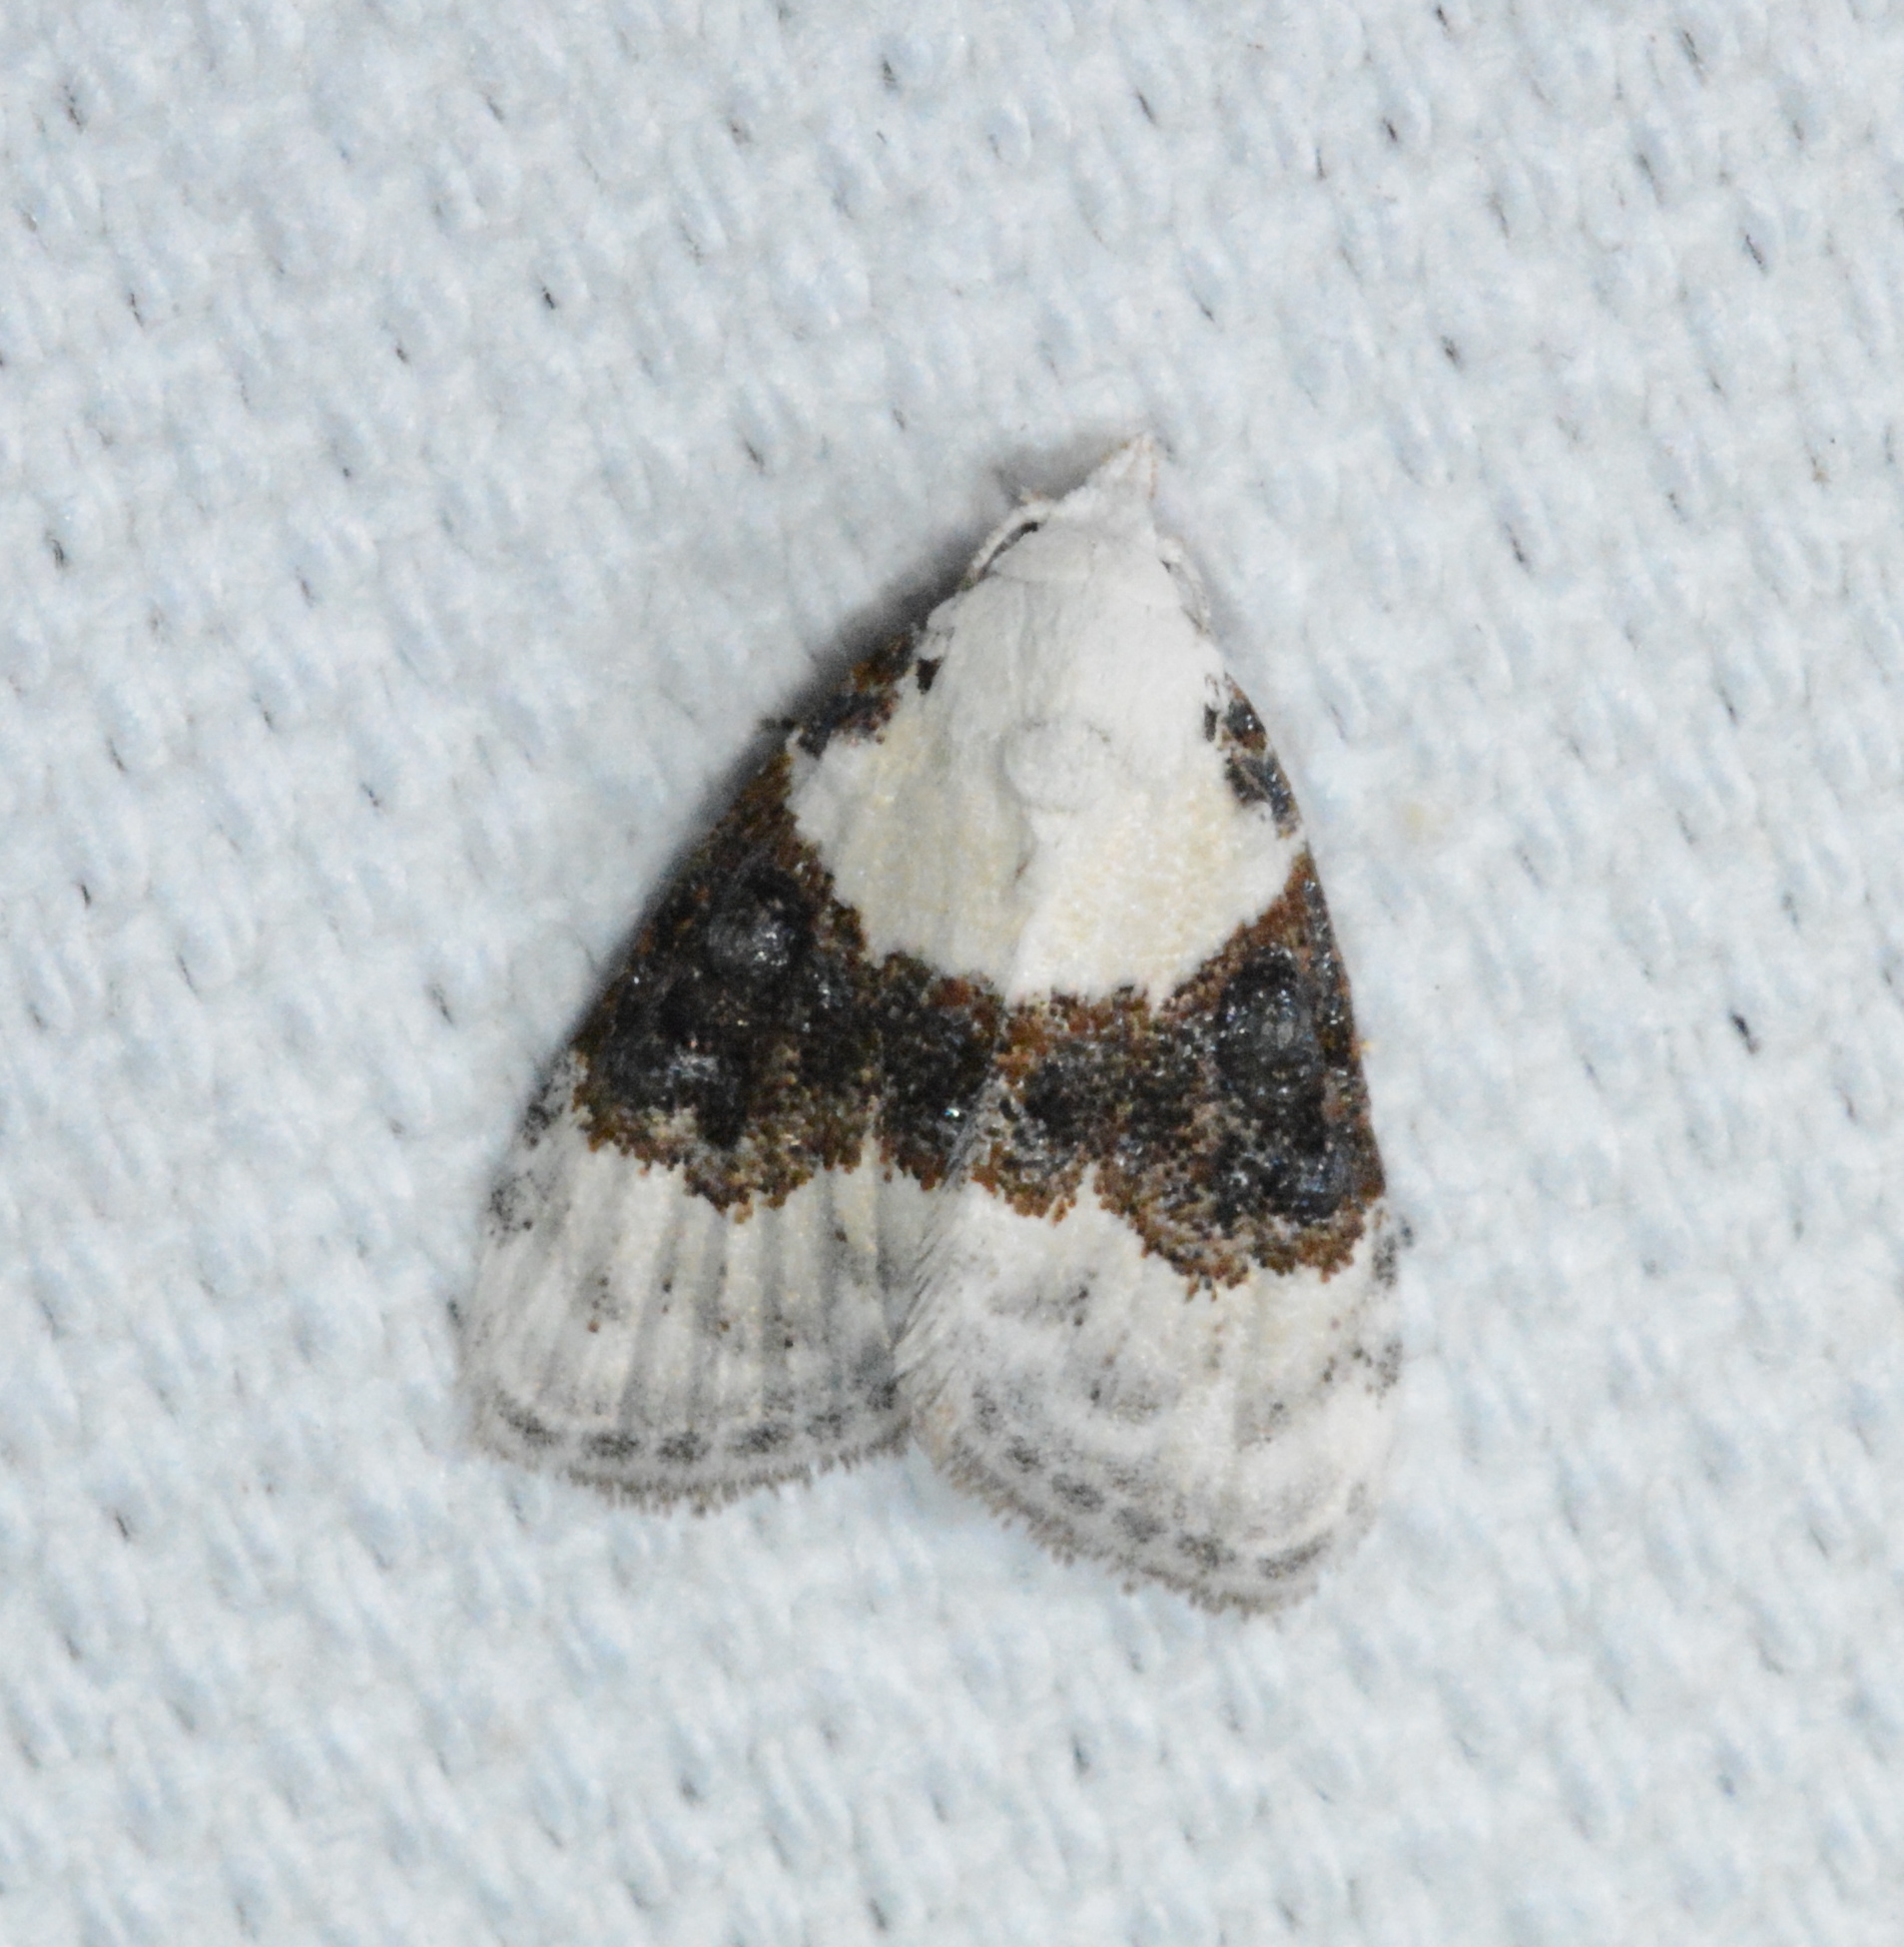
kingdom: Animalia
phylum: Arthropoda
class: Insecta
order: Lepidoptera
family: Nolidae
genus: Nola
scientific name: Nola pustulata
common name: Sharp-blotched nola moth
